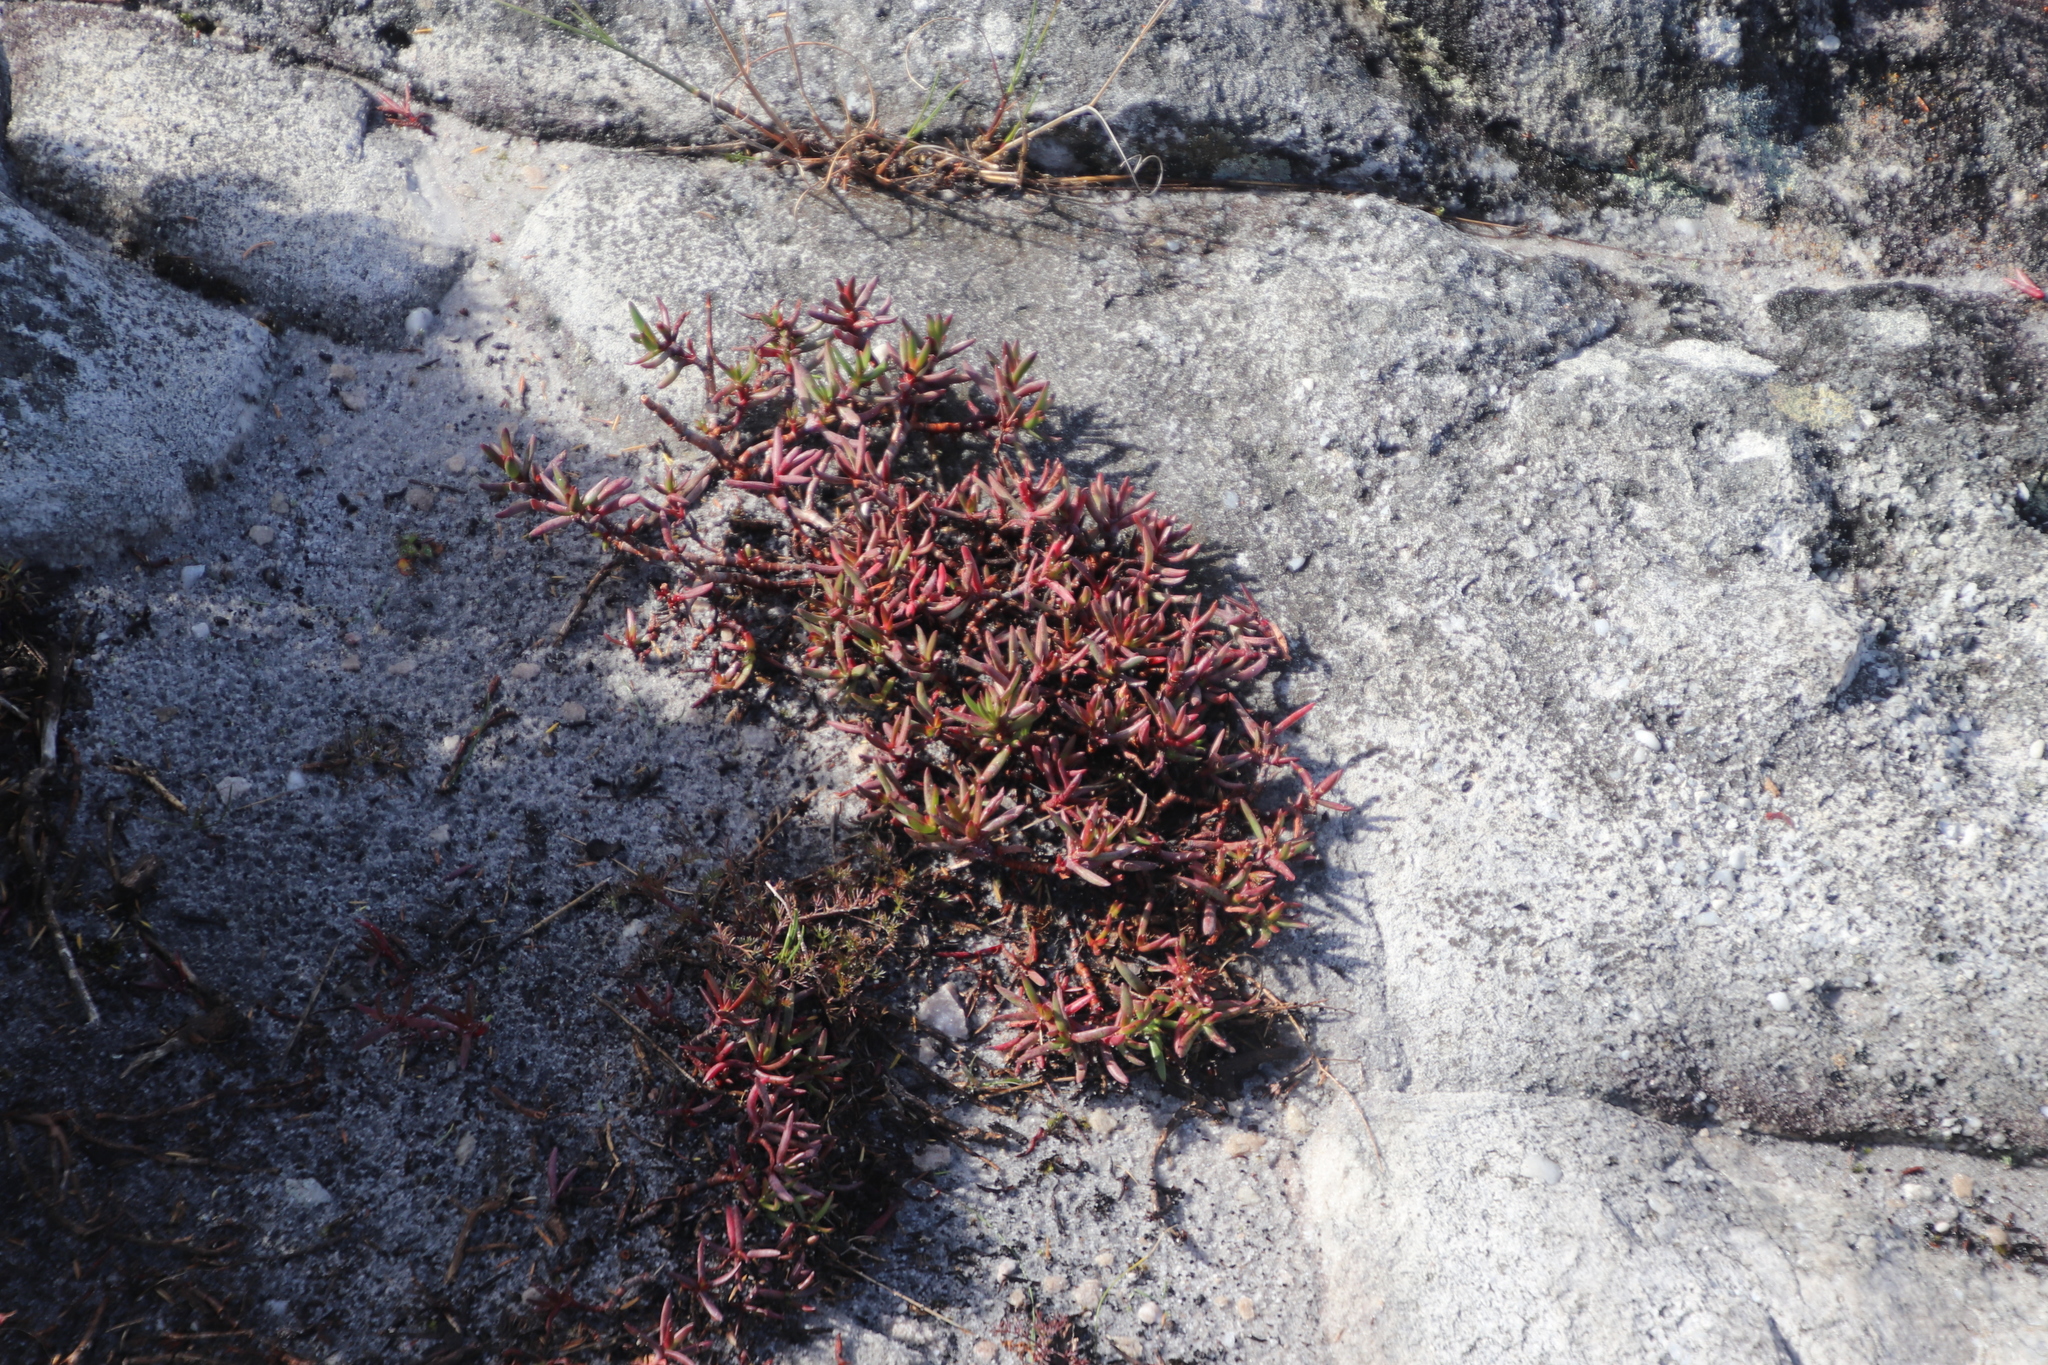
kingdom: Plantae
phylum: Tracheophyta
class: Magnoliopsida
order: Saxifragales
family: Crassulaceae
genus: Crassula
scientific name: Crassula obtusa
